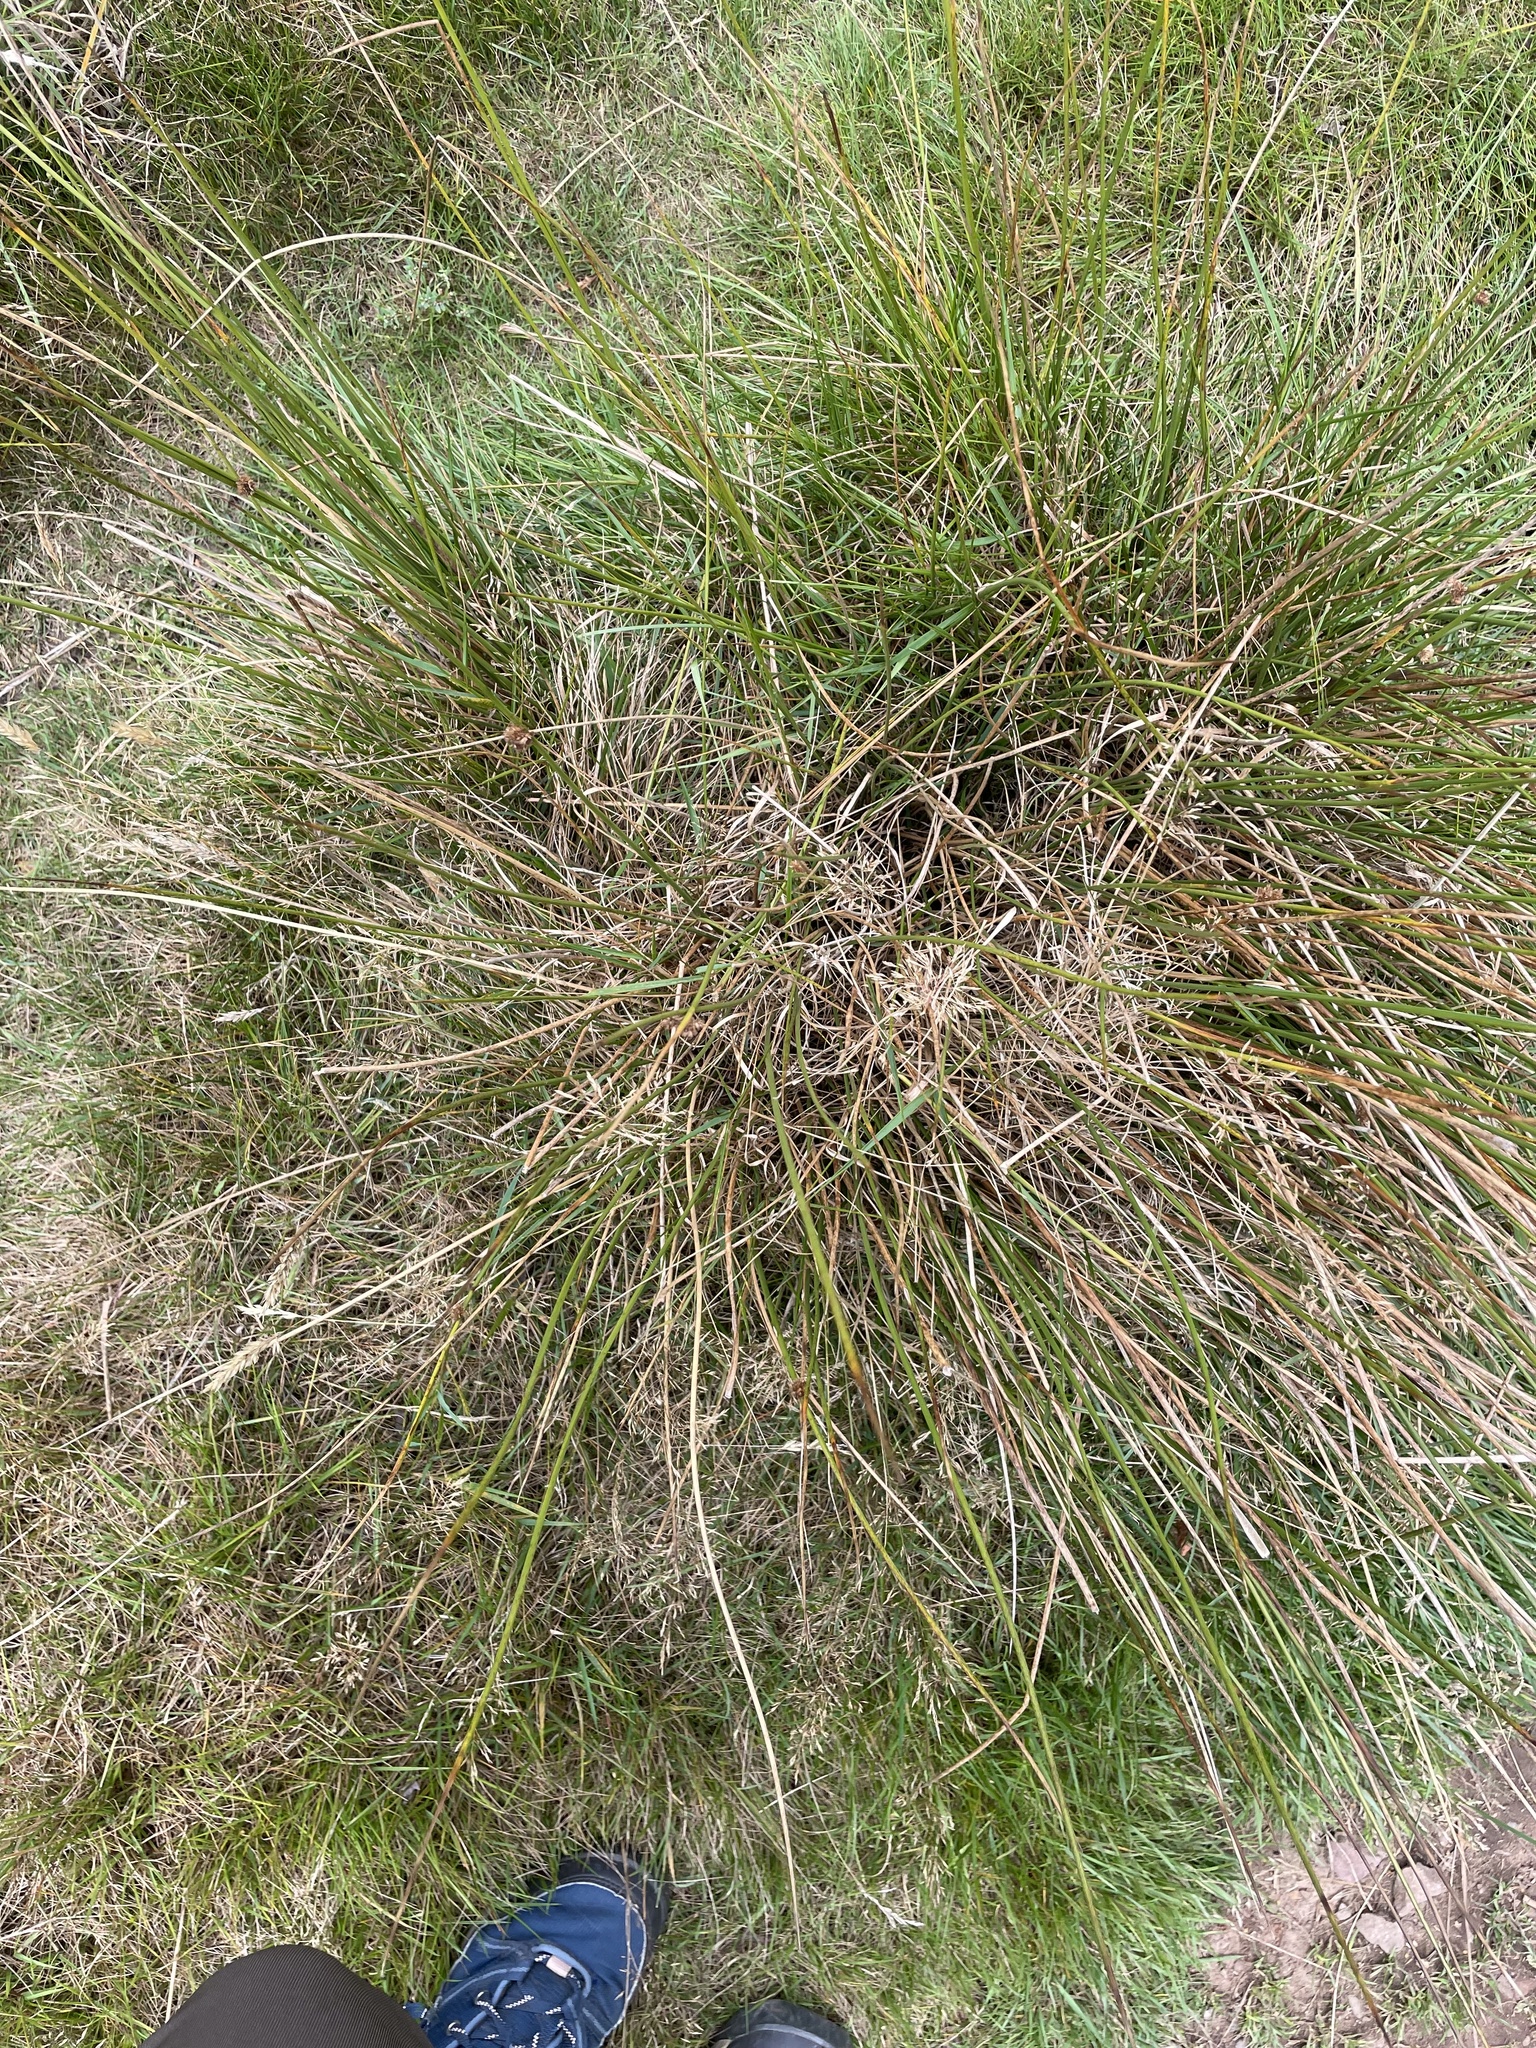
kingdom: Plantae
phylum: Tracheophyta
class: Liliopsida
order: Poales
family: Juncaceae
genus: Juncus
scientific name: Juncus conglomeratus
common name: Compact rush
